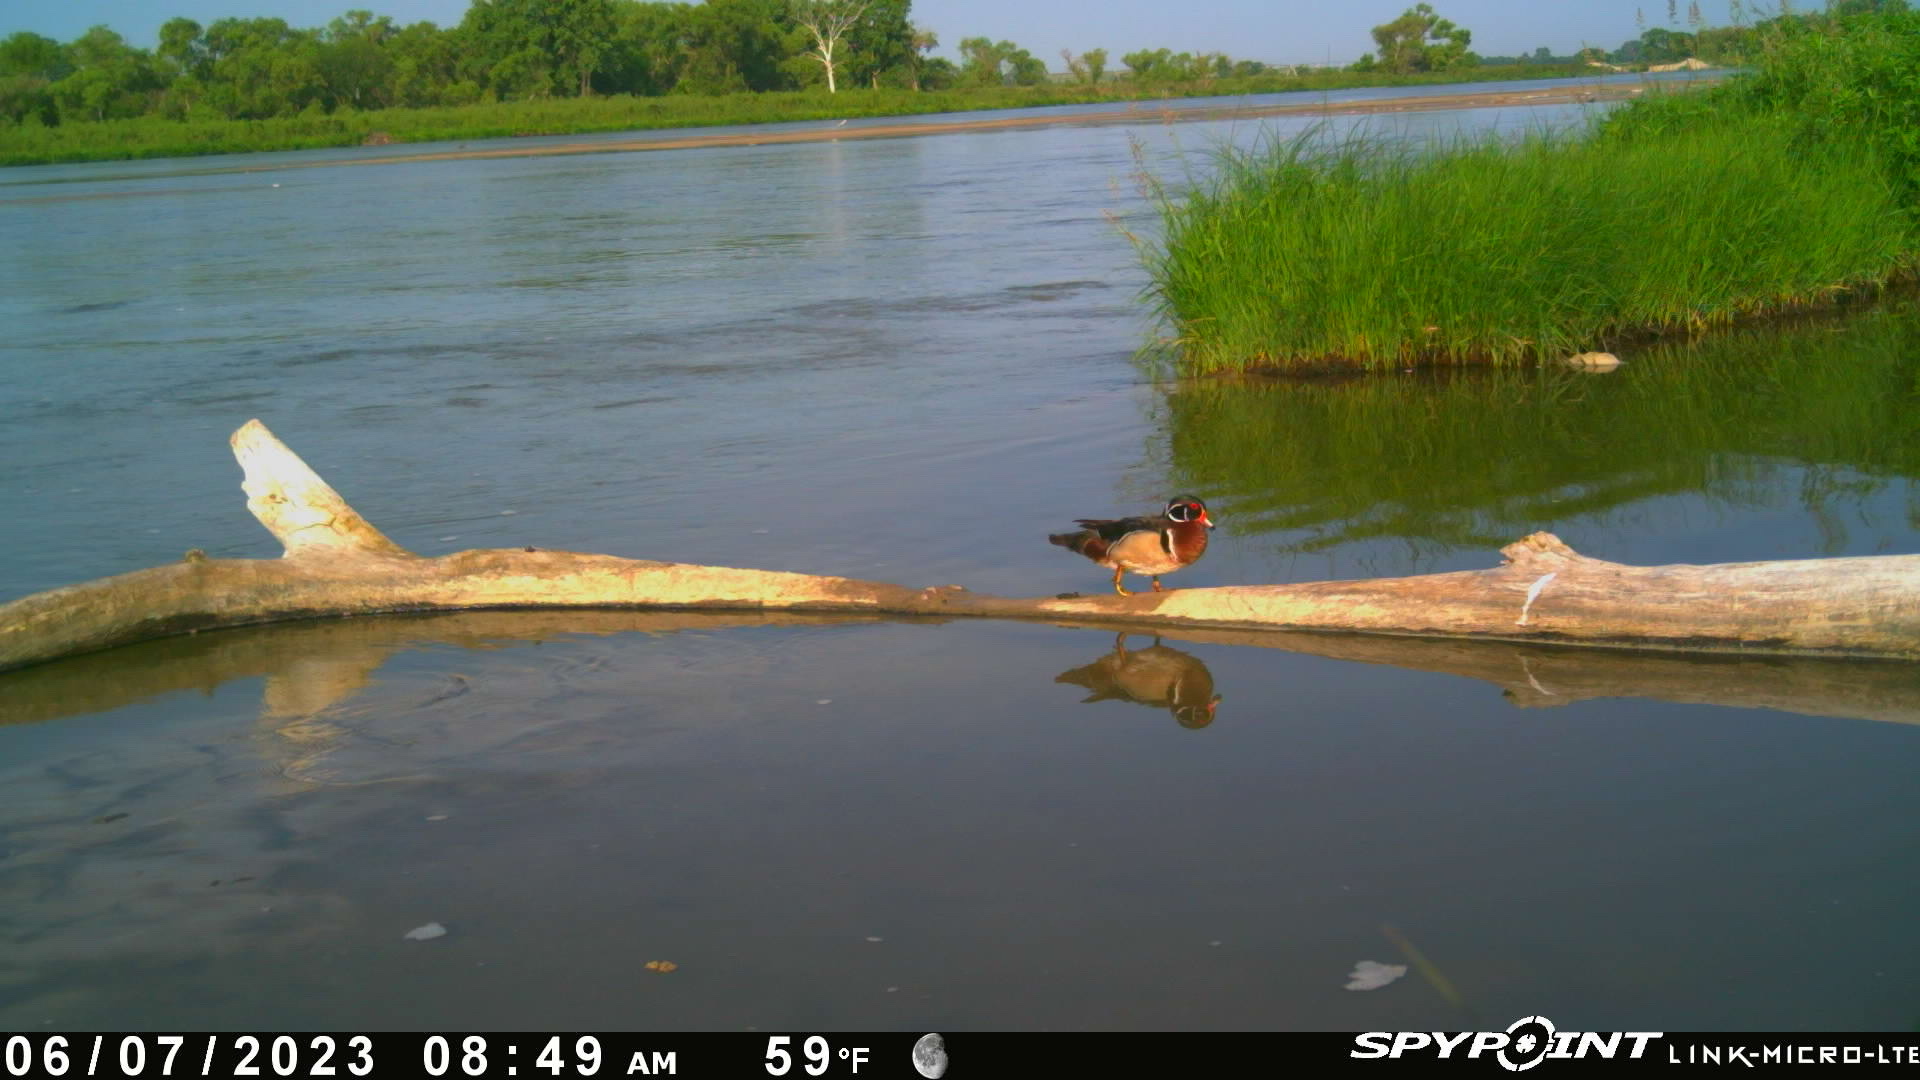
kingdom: Animalia
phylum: Chordata
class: Aves
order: Anseriformes
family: Anatidae
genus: Aix
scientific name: Aix sponsa
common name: Wood duck
